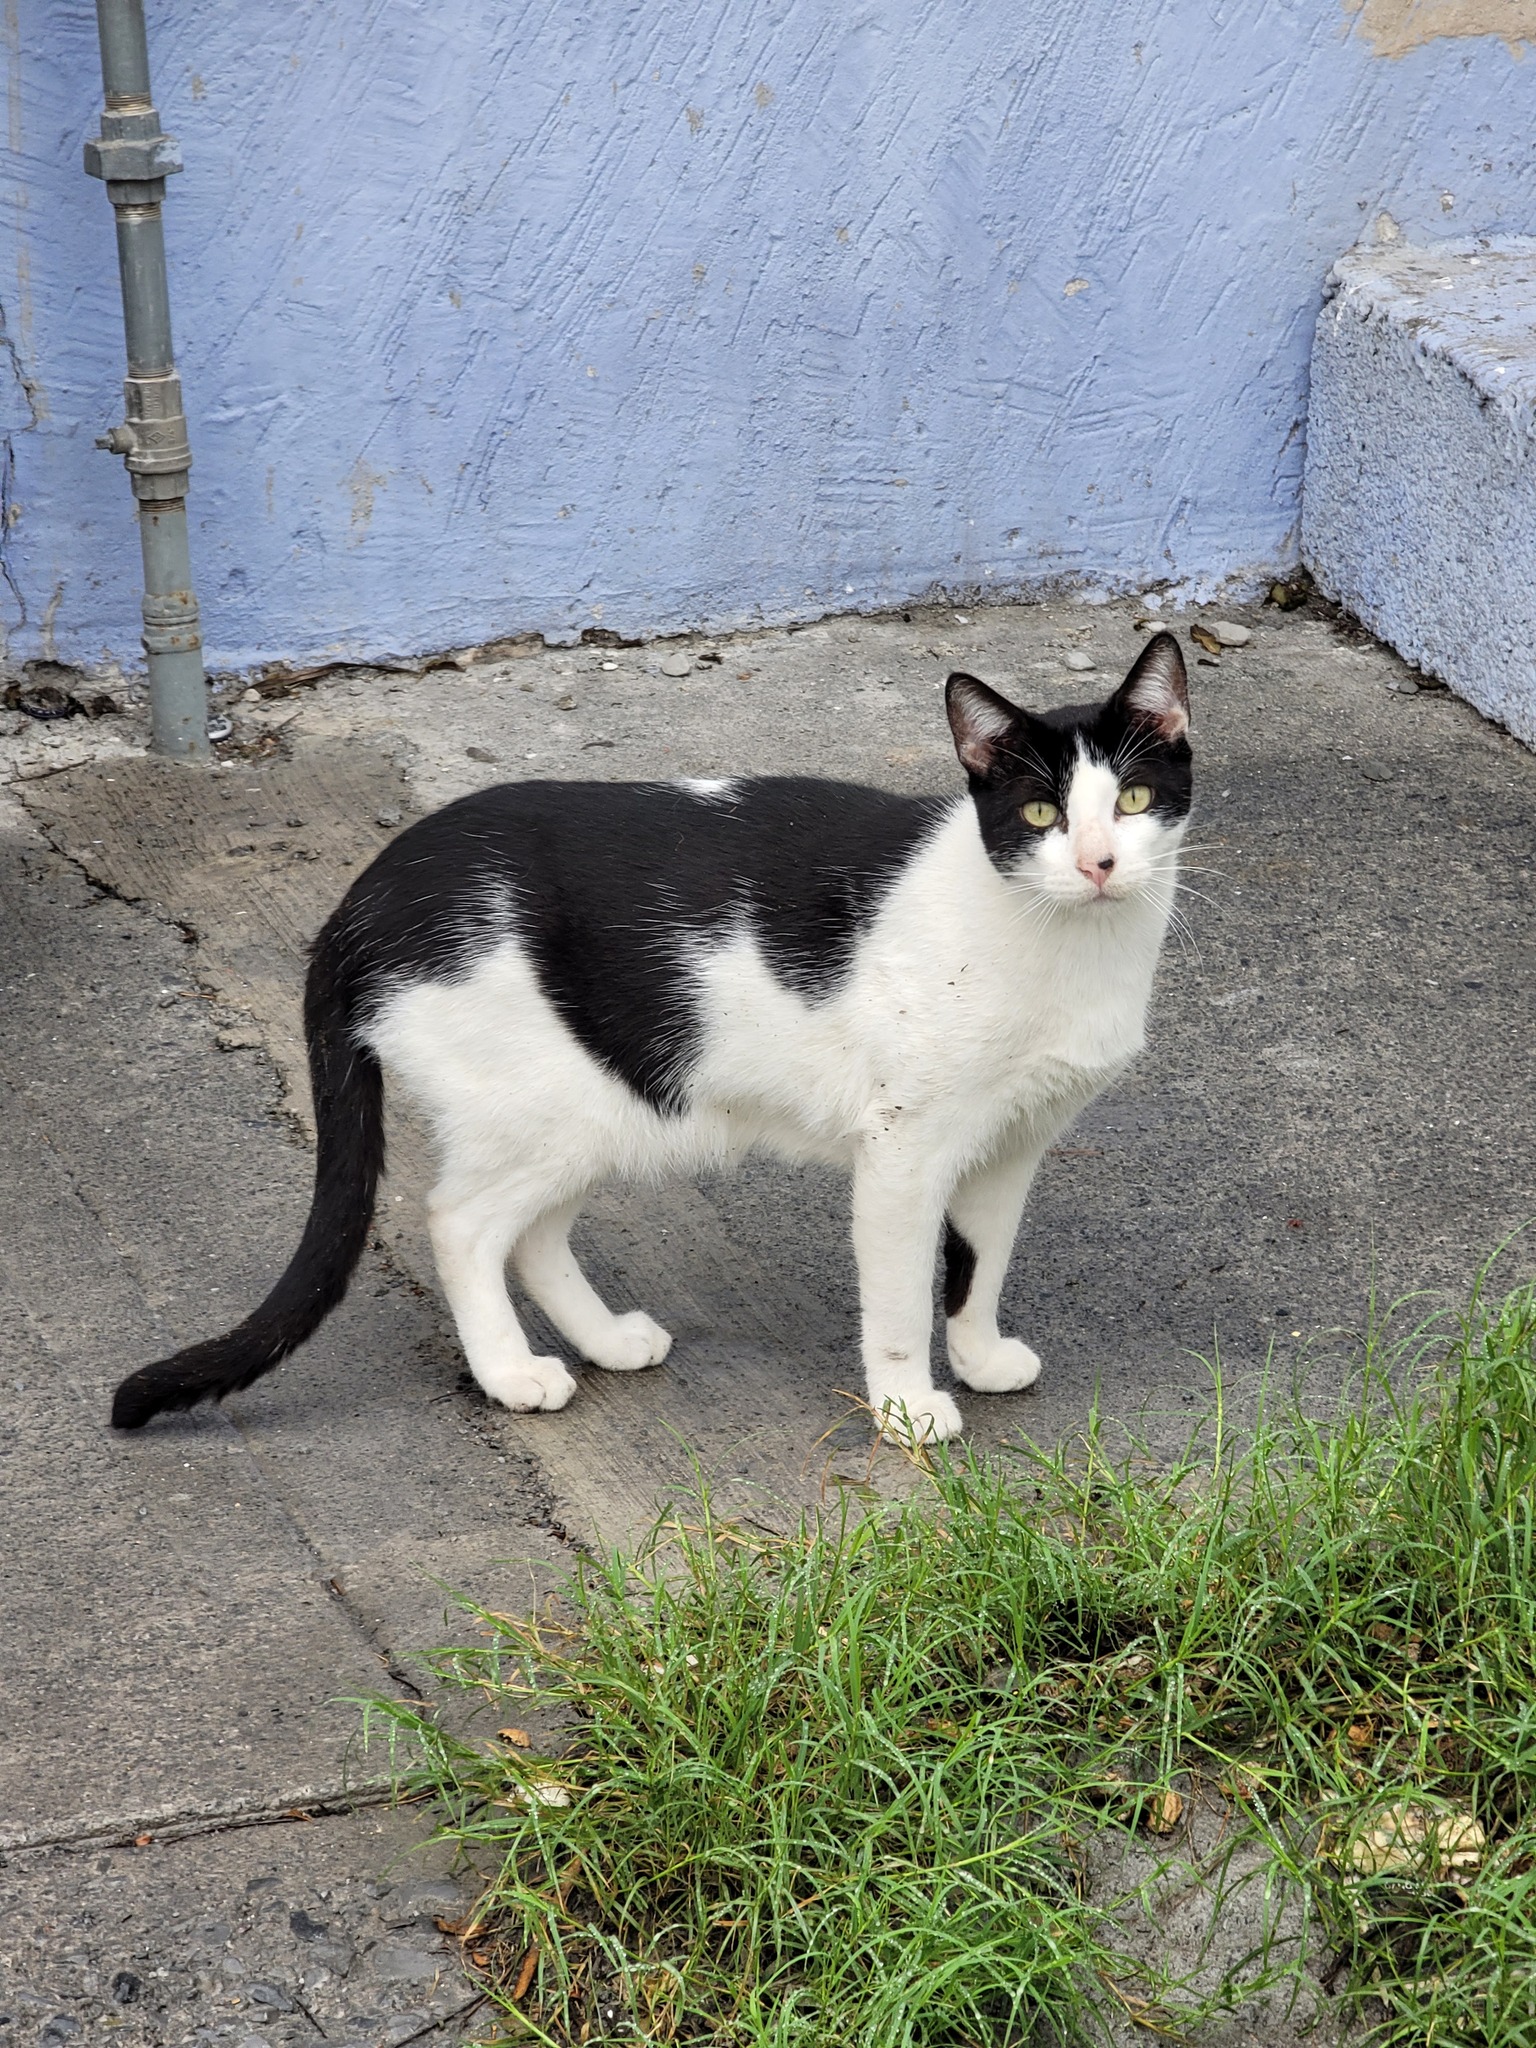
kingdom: Animalia
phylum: Chordata
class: Mammalia
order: Carnivora
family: Felidae
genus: Felis
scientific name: Felis catus
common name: Domestic cat
